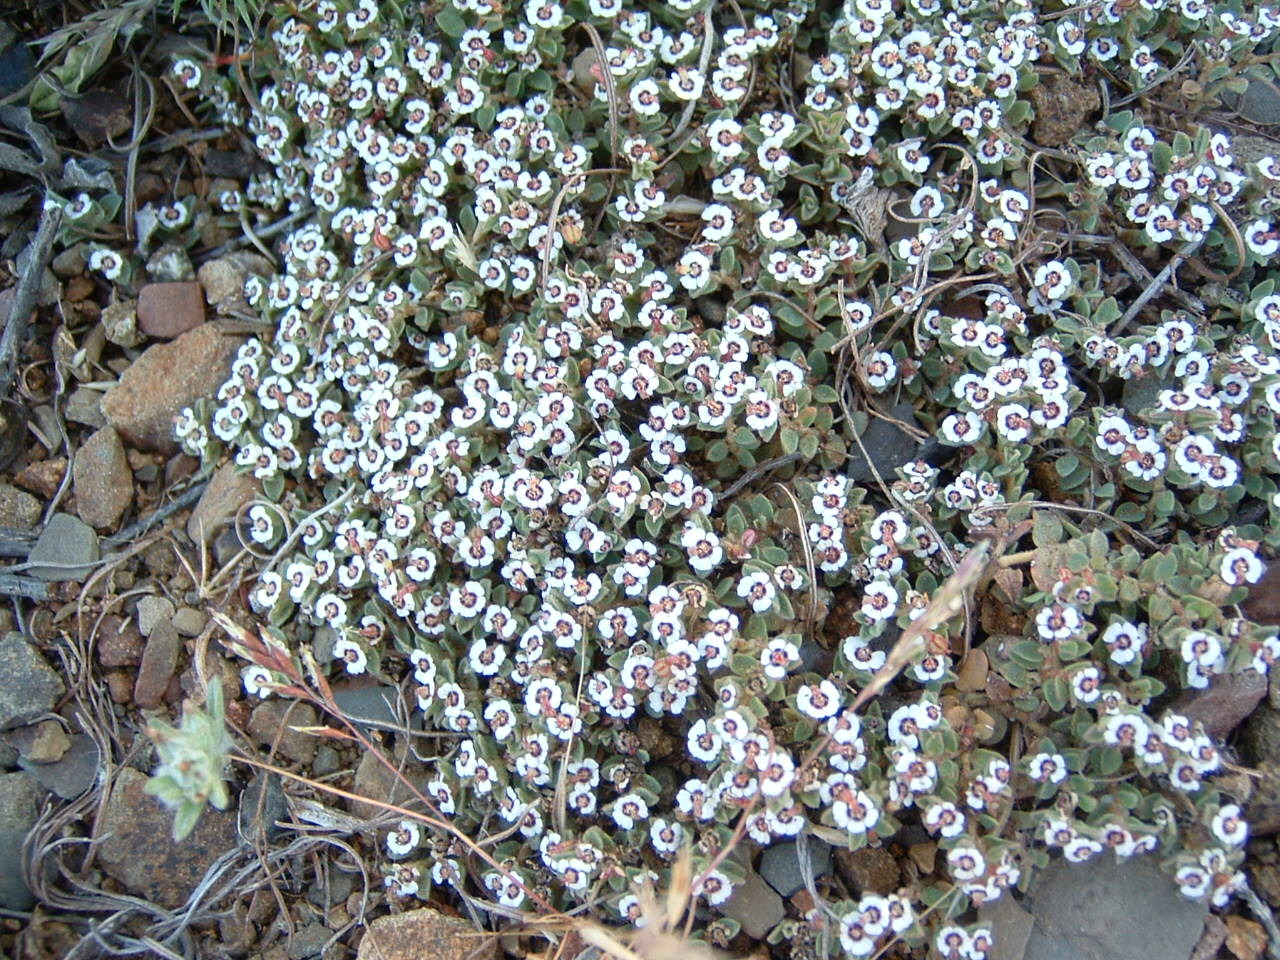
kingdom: Plantae
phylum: Tracheophyta
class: Magnoliopsida
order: Malpighiales
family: Euphorbiaceae
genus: Euphorbia
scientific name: Euphorbia polycarpa
